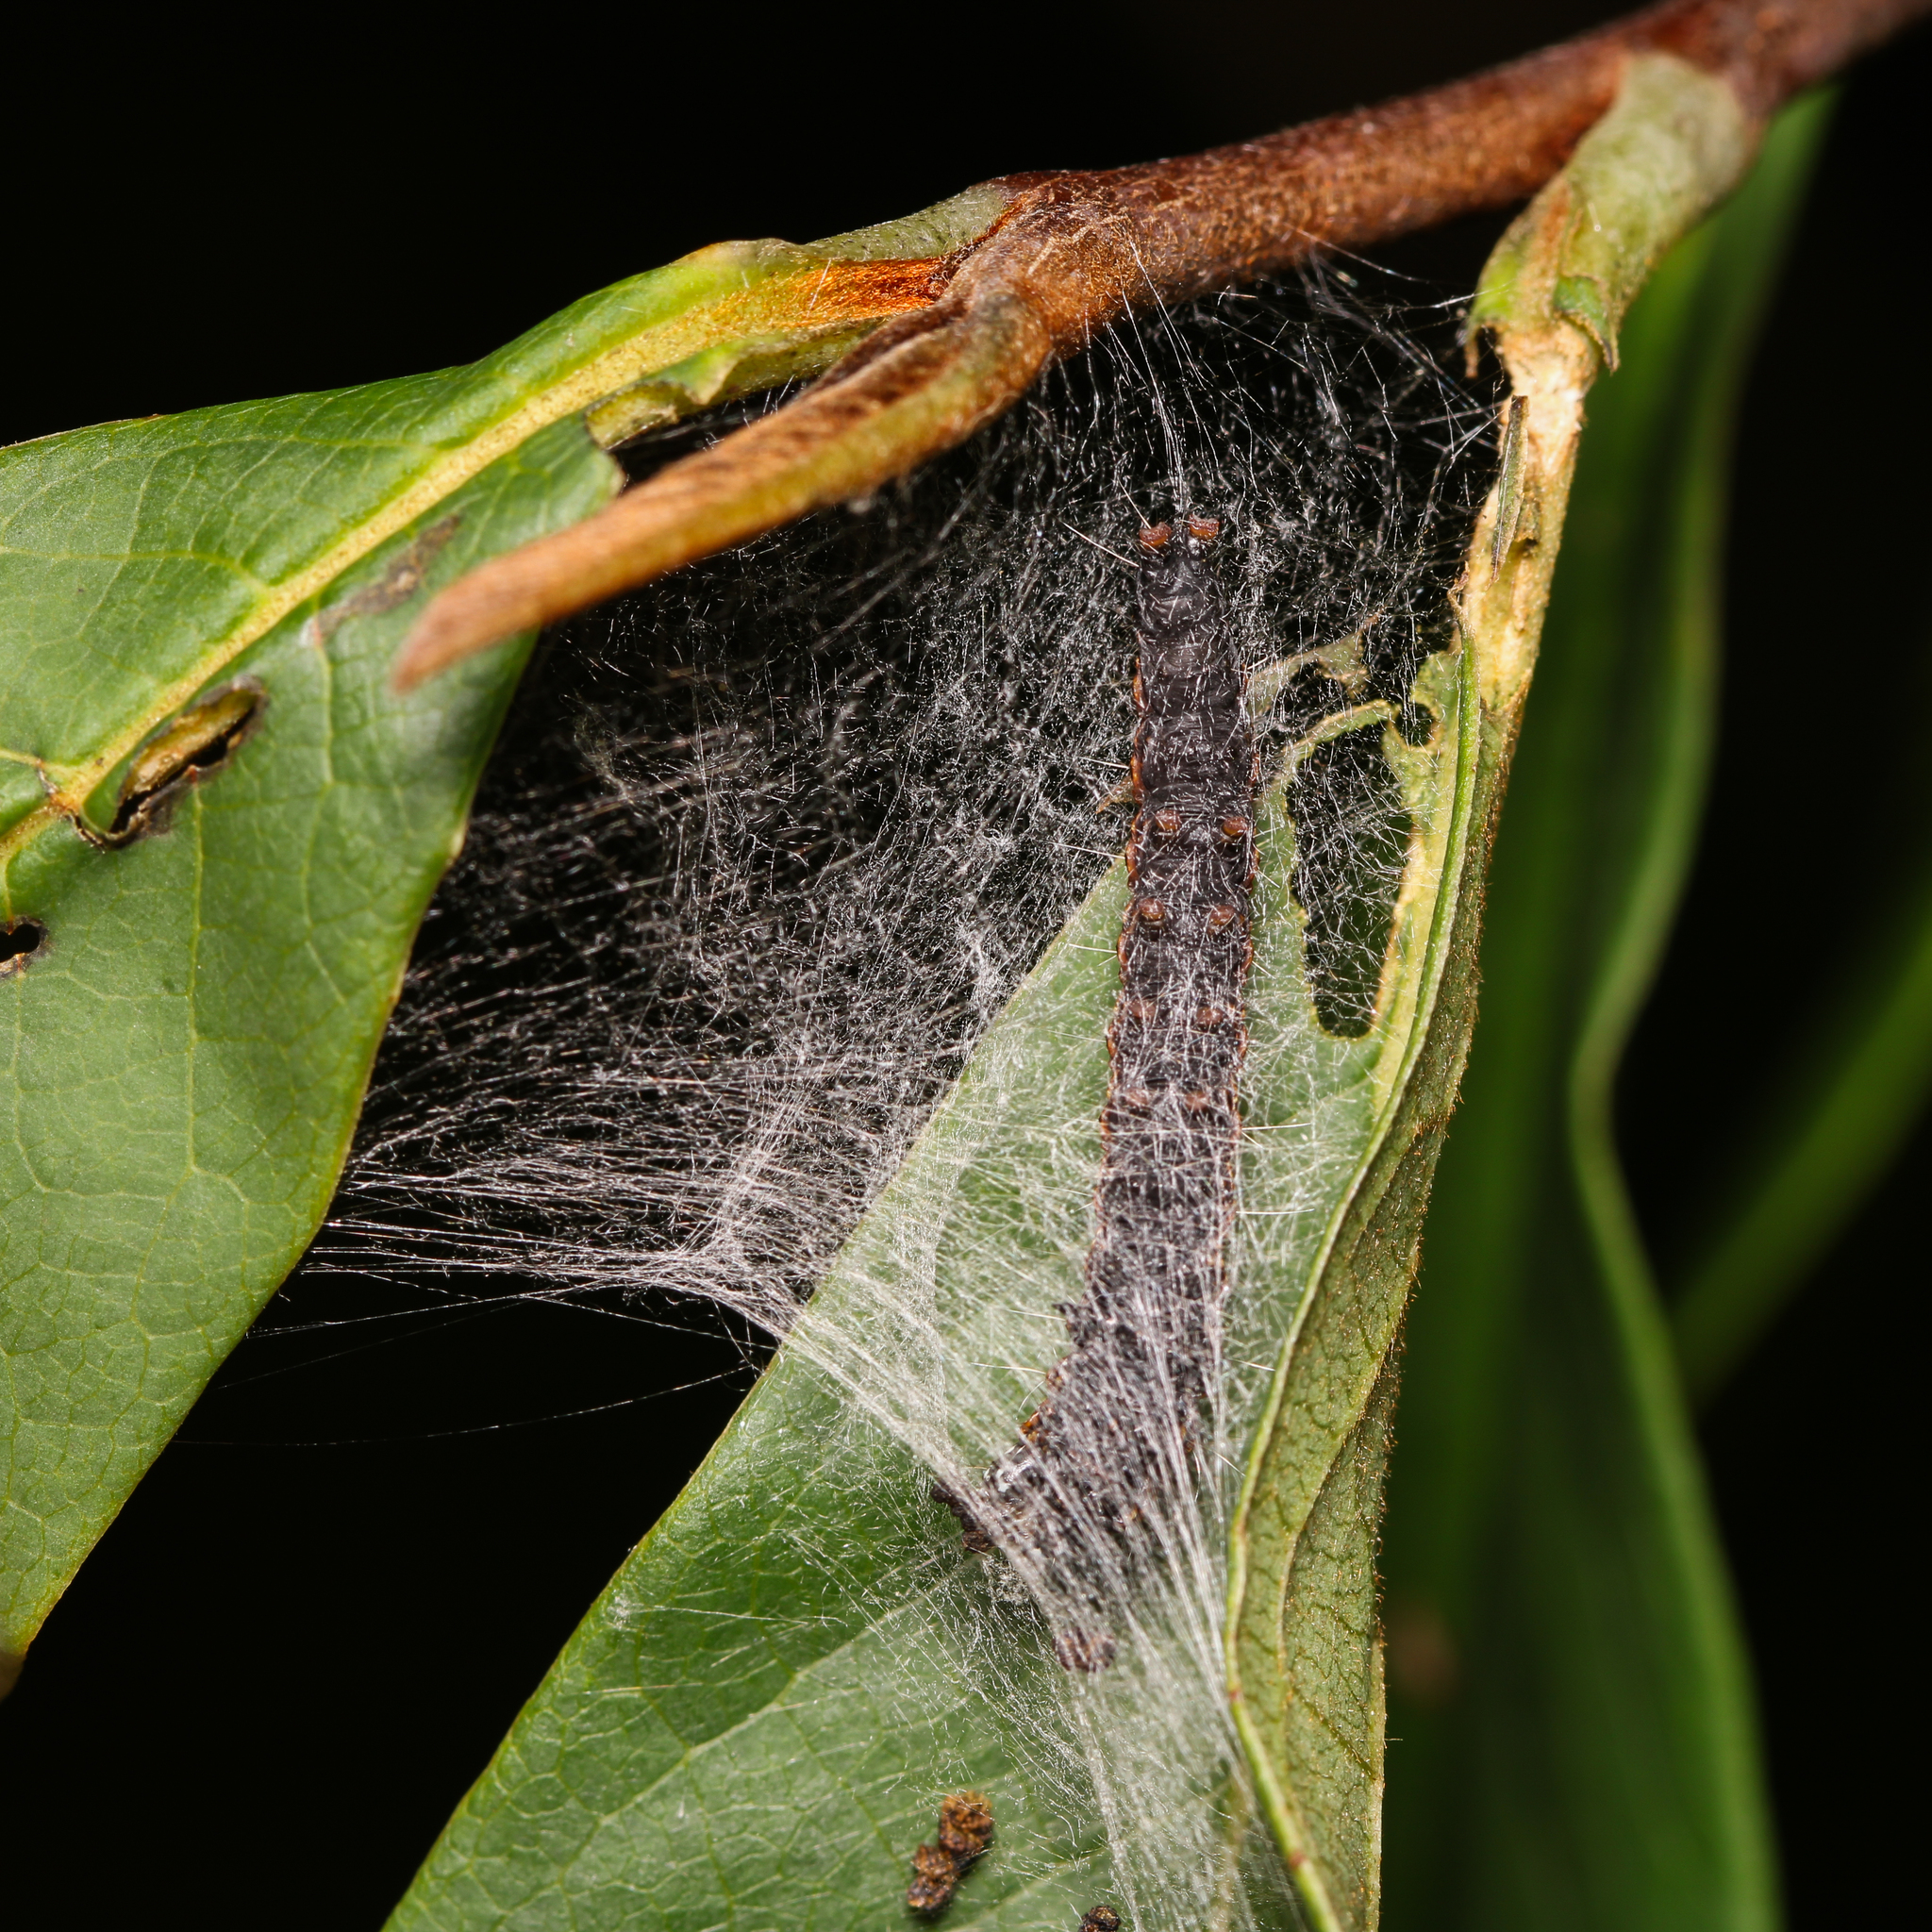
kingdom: Animalia
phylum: Arthropoda
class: Insecta
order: Lepidoptera
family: Pyralidae
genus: Omphalocera
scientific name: Omphalocera munroei
